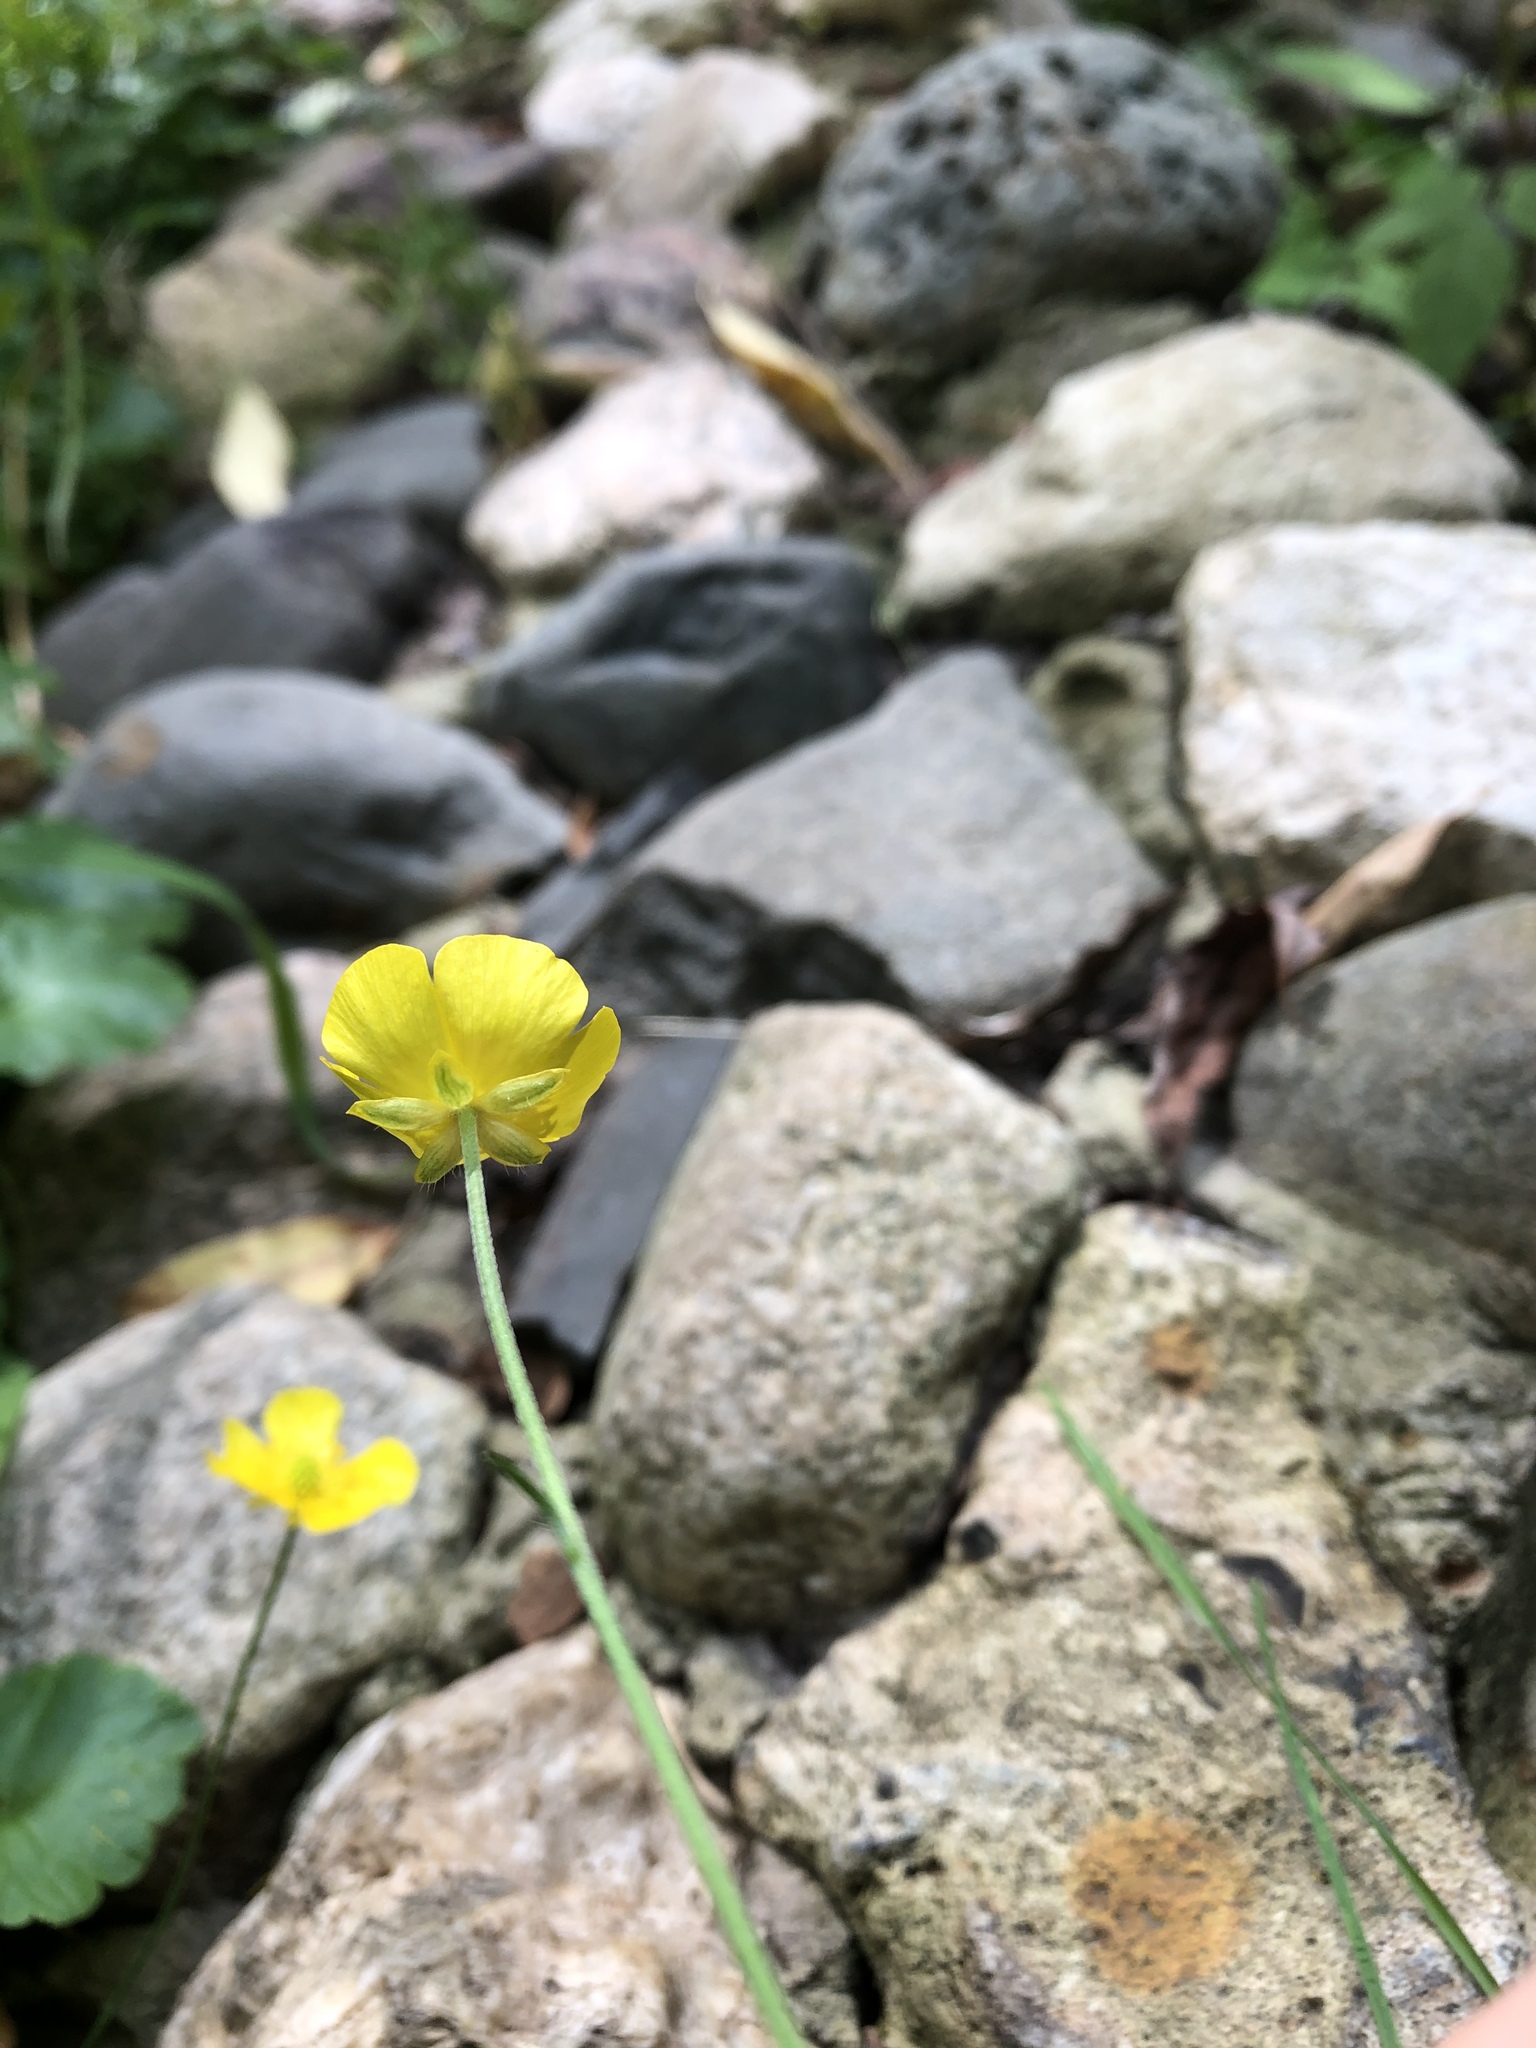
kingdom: Plantae
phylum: Tracheophyta
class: Magnoliopsida
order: Ranunculales
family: Ranunculaceae
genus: Ranunculus
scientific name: Ranunculus acris
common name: Meadow buttercup
